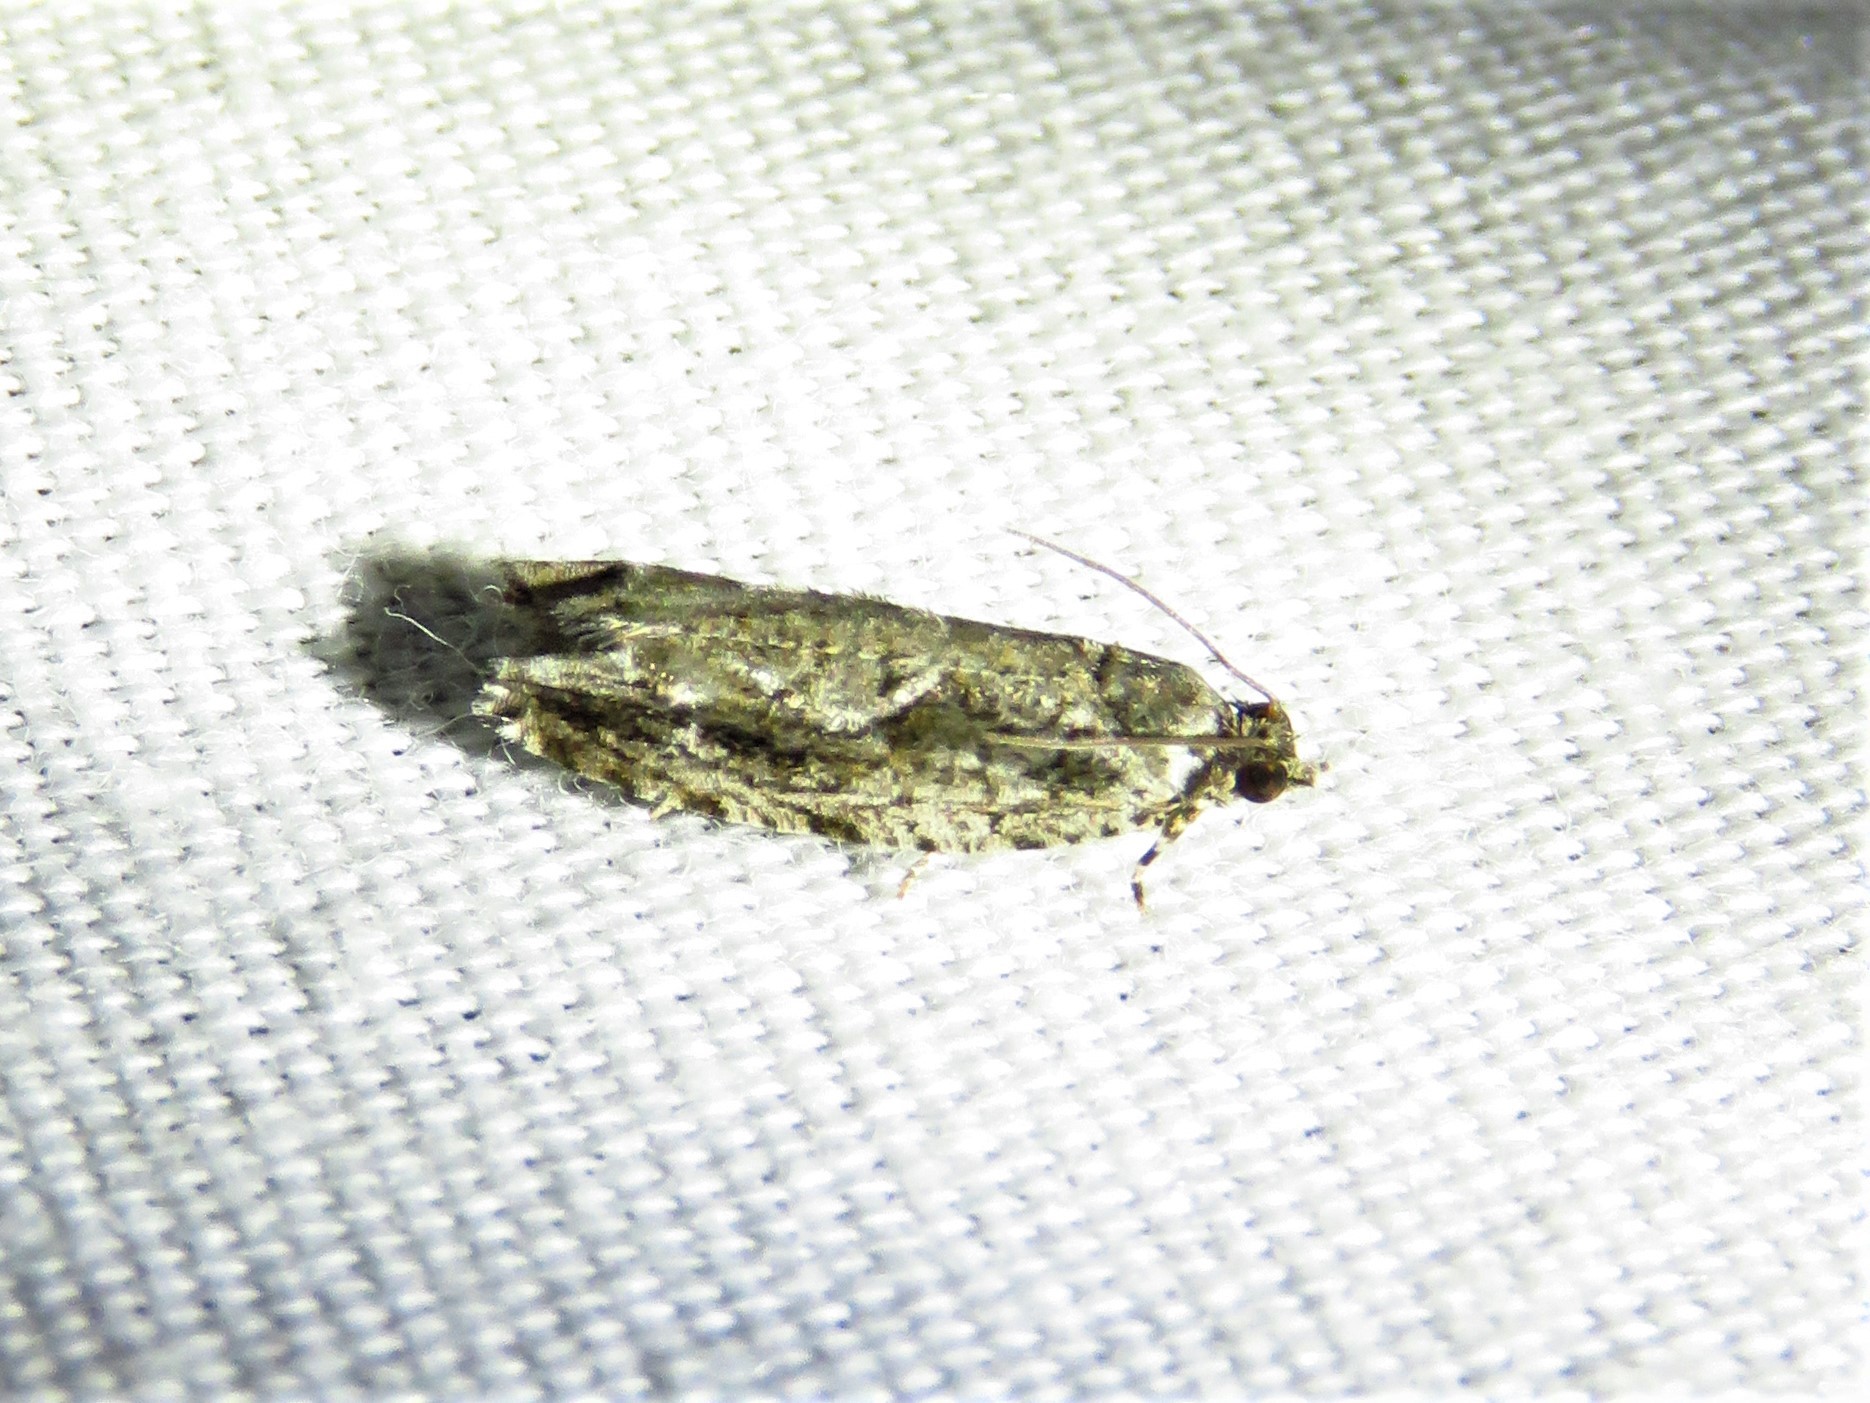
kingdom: Animalia
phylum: Arthropoda
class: Insecta
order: Lepidoptera
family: Tortricidae
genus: Gretchena
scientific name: Gretchena bolliana
